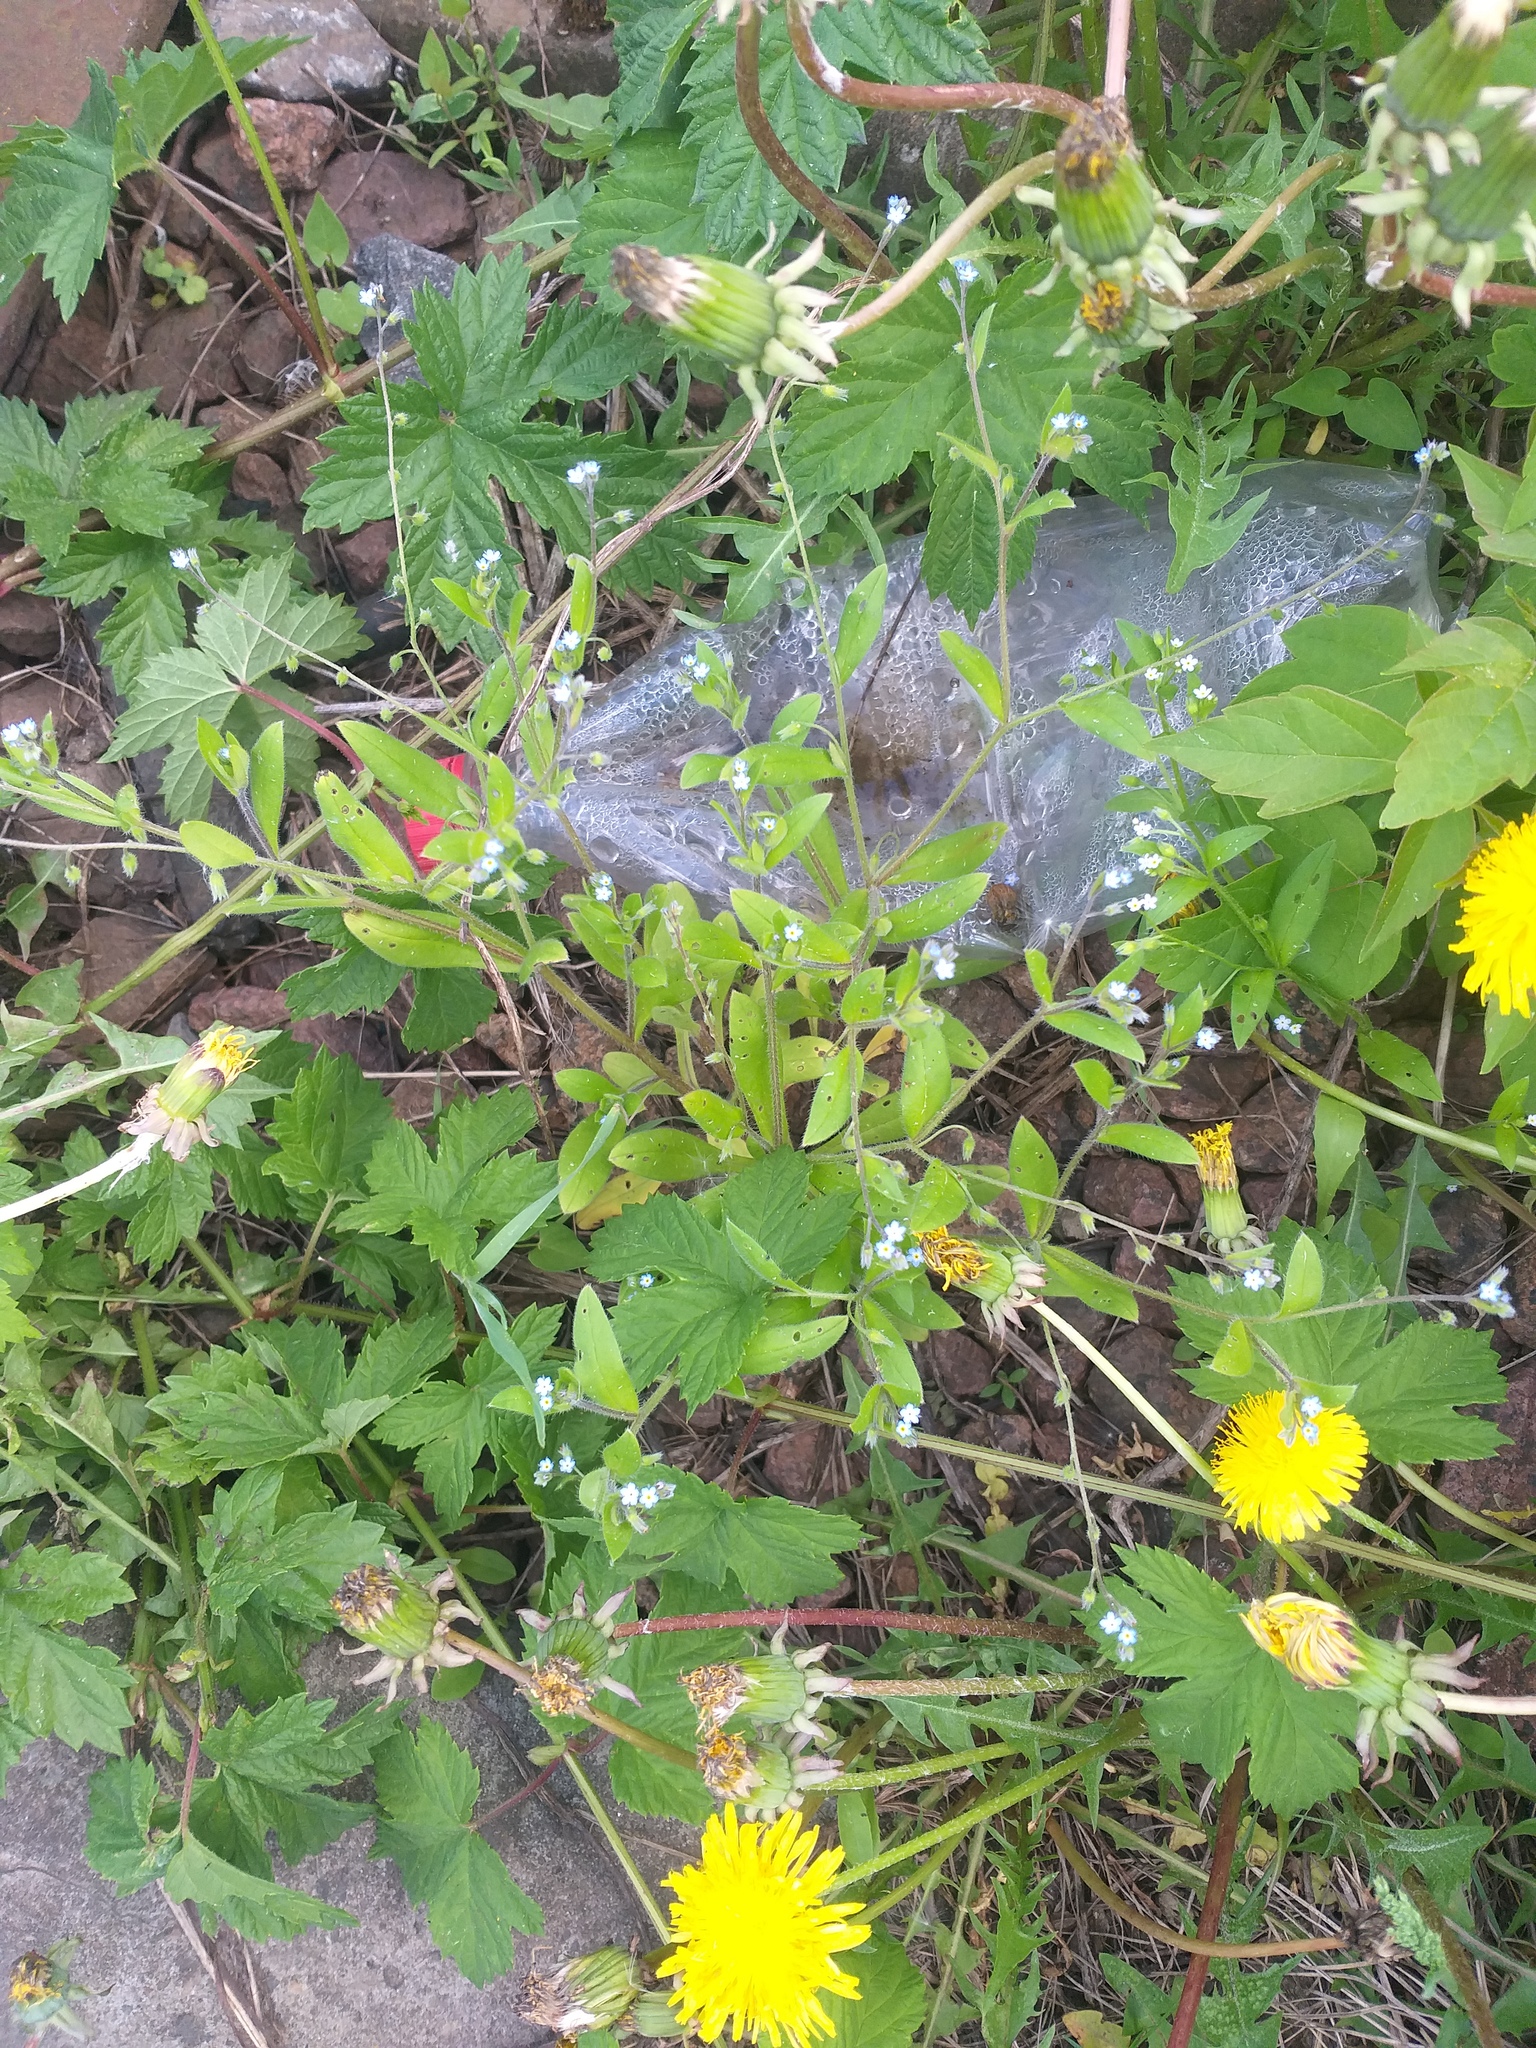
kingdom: Plantae
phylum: Tracheophyta
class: Magnoliopsida
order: Boraginales
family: Boraginaceae
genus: Myosotis
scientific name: Myosotis sparsiflora
